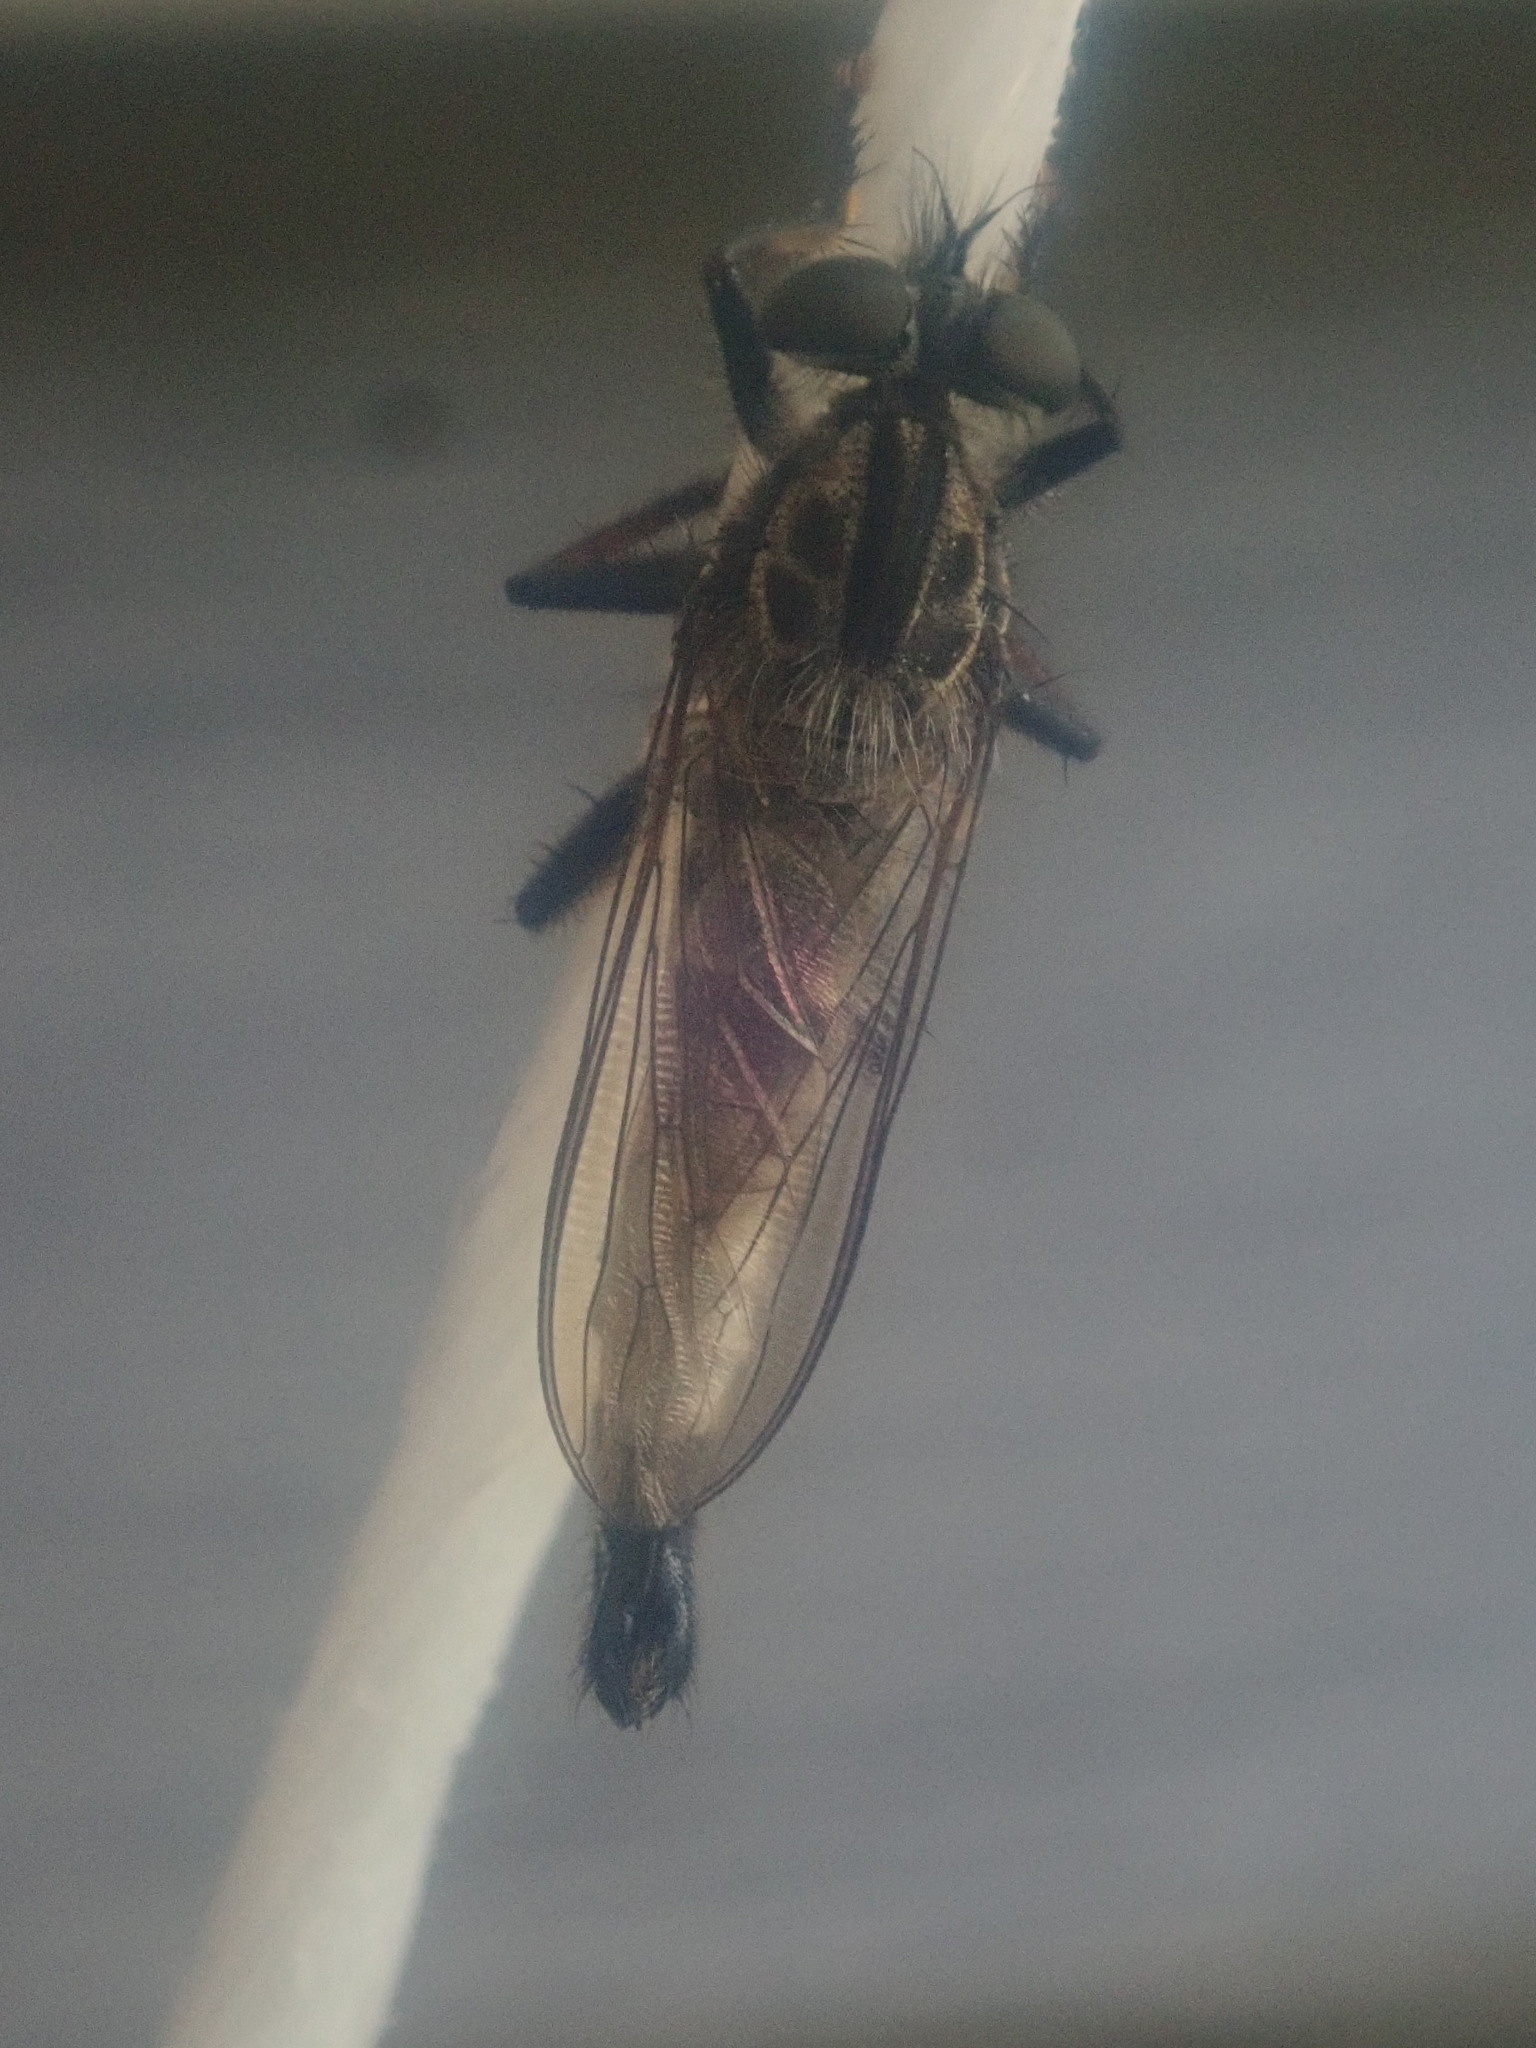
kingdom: Animalia
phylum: Arthropoda
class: Insecta
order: Diptera
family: Asilidae
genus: Efferia
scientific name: Efferia
